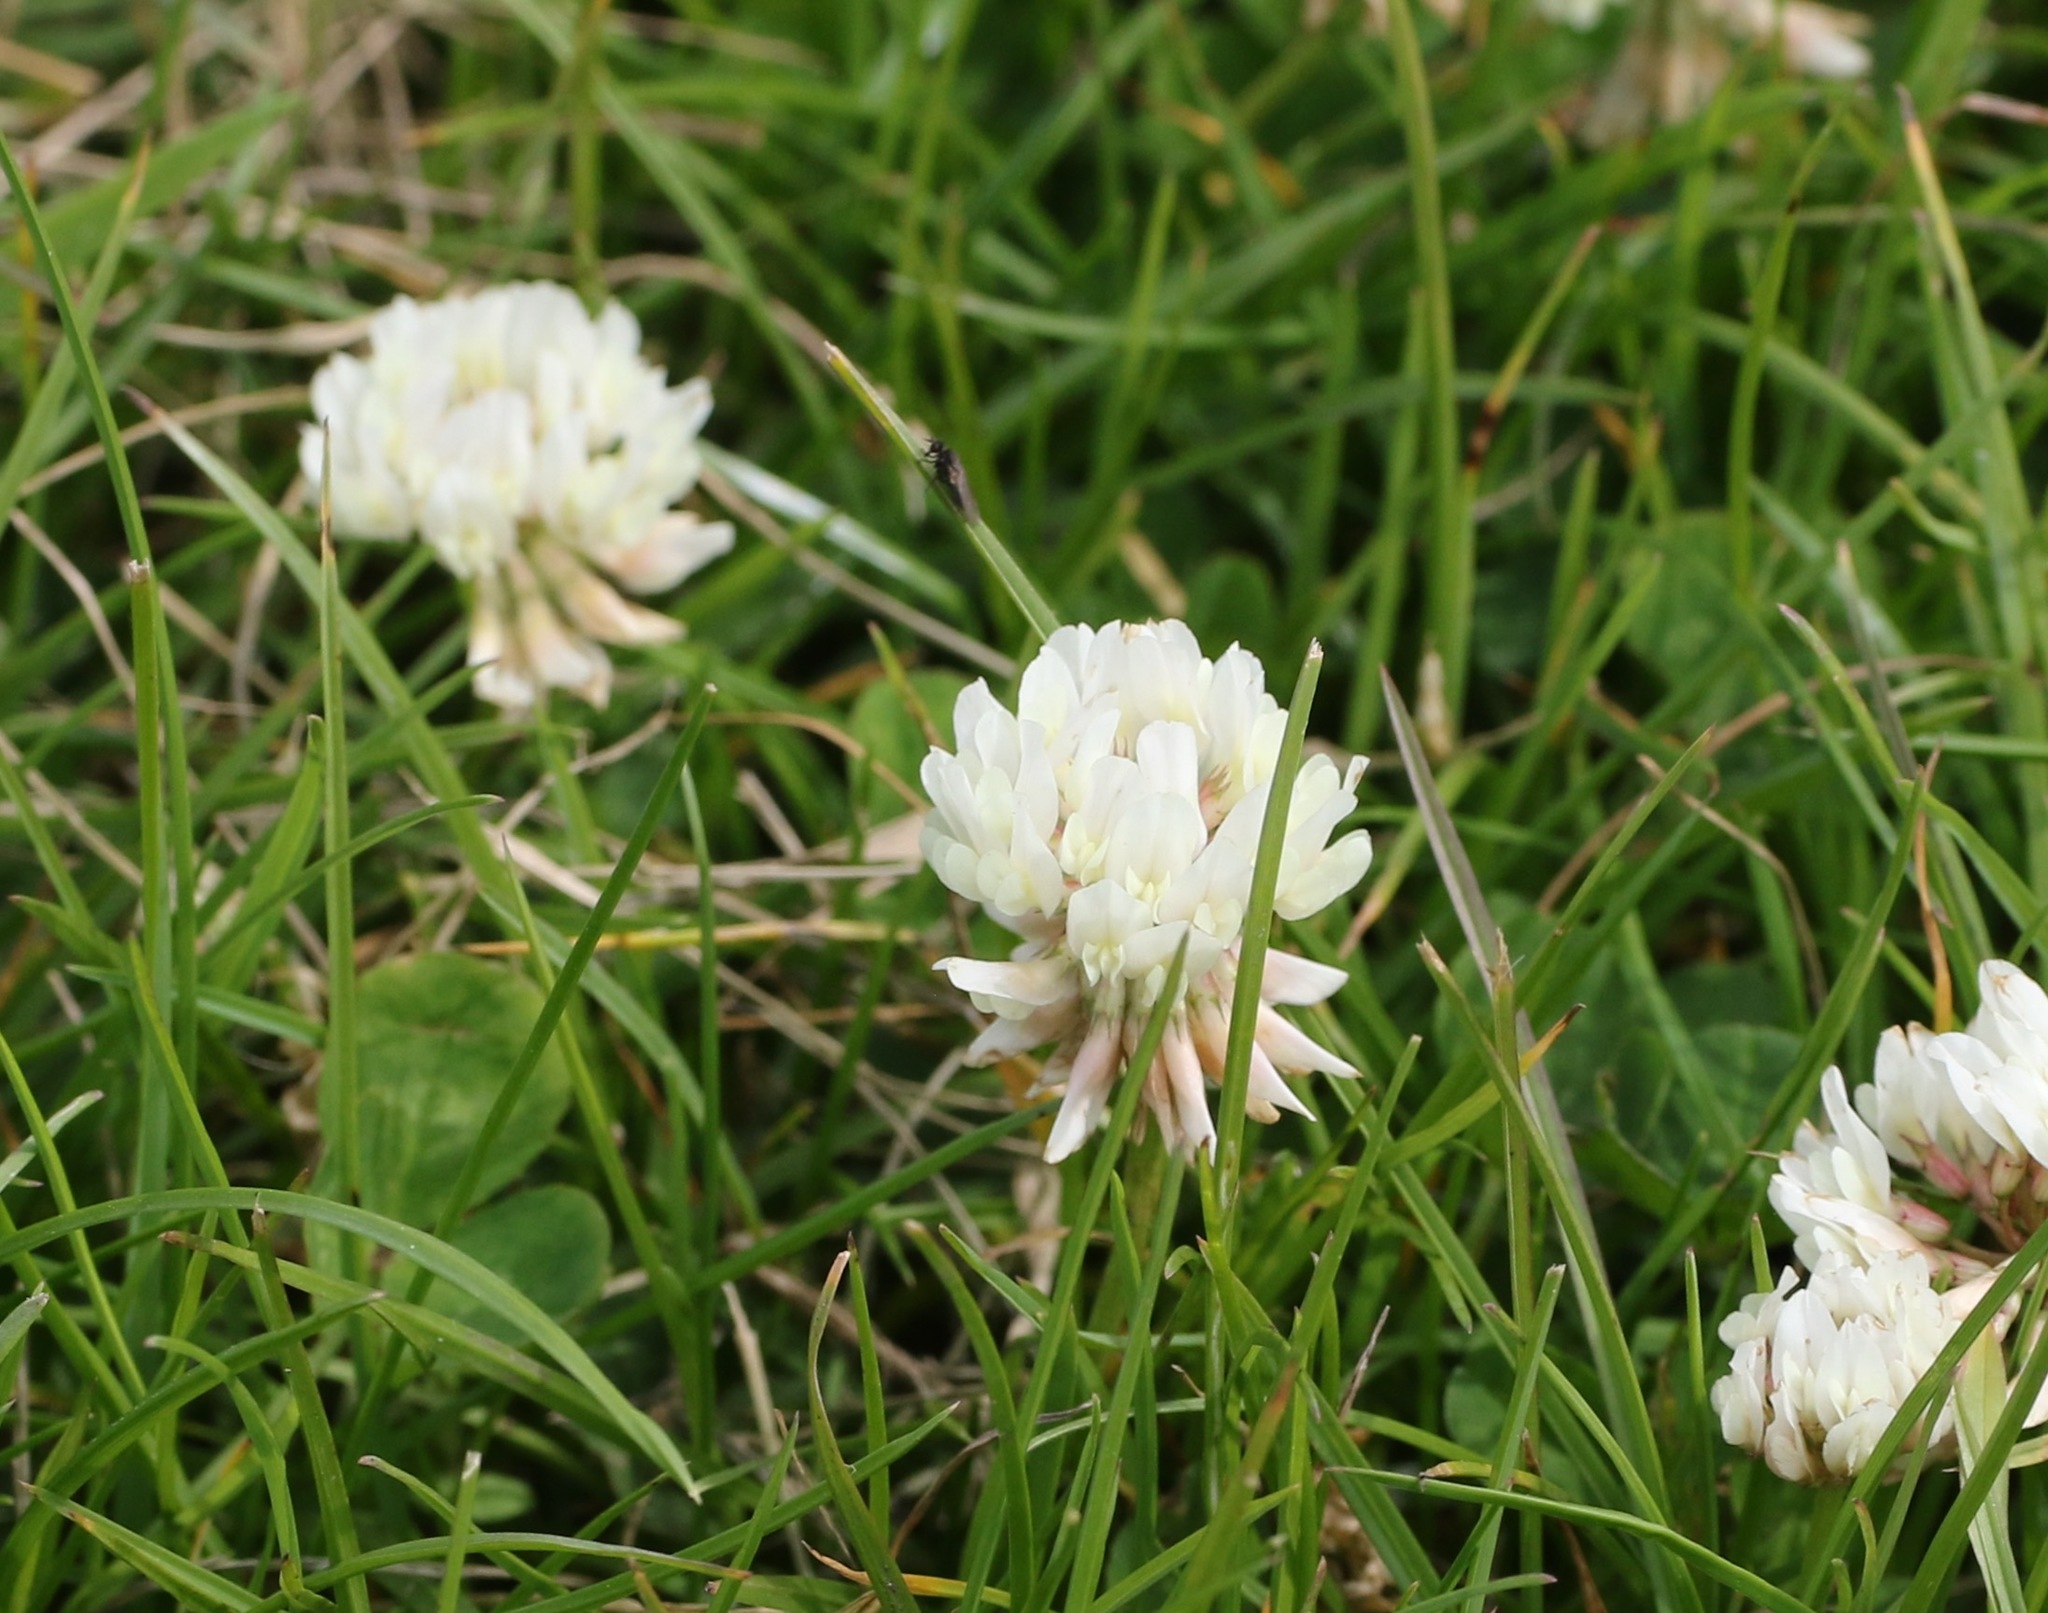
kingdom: Plantae
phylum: Tracheophyta
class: Magnoliopsida
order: Fabales
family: Fabaceae
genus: Trifolium
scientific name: Trifolium repens
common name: White clover
